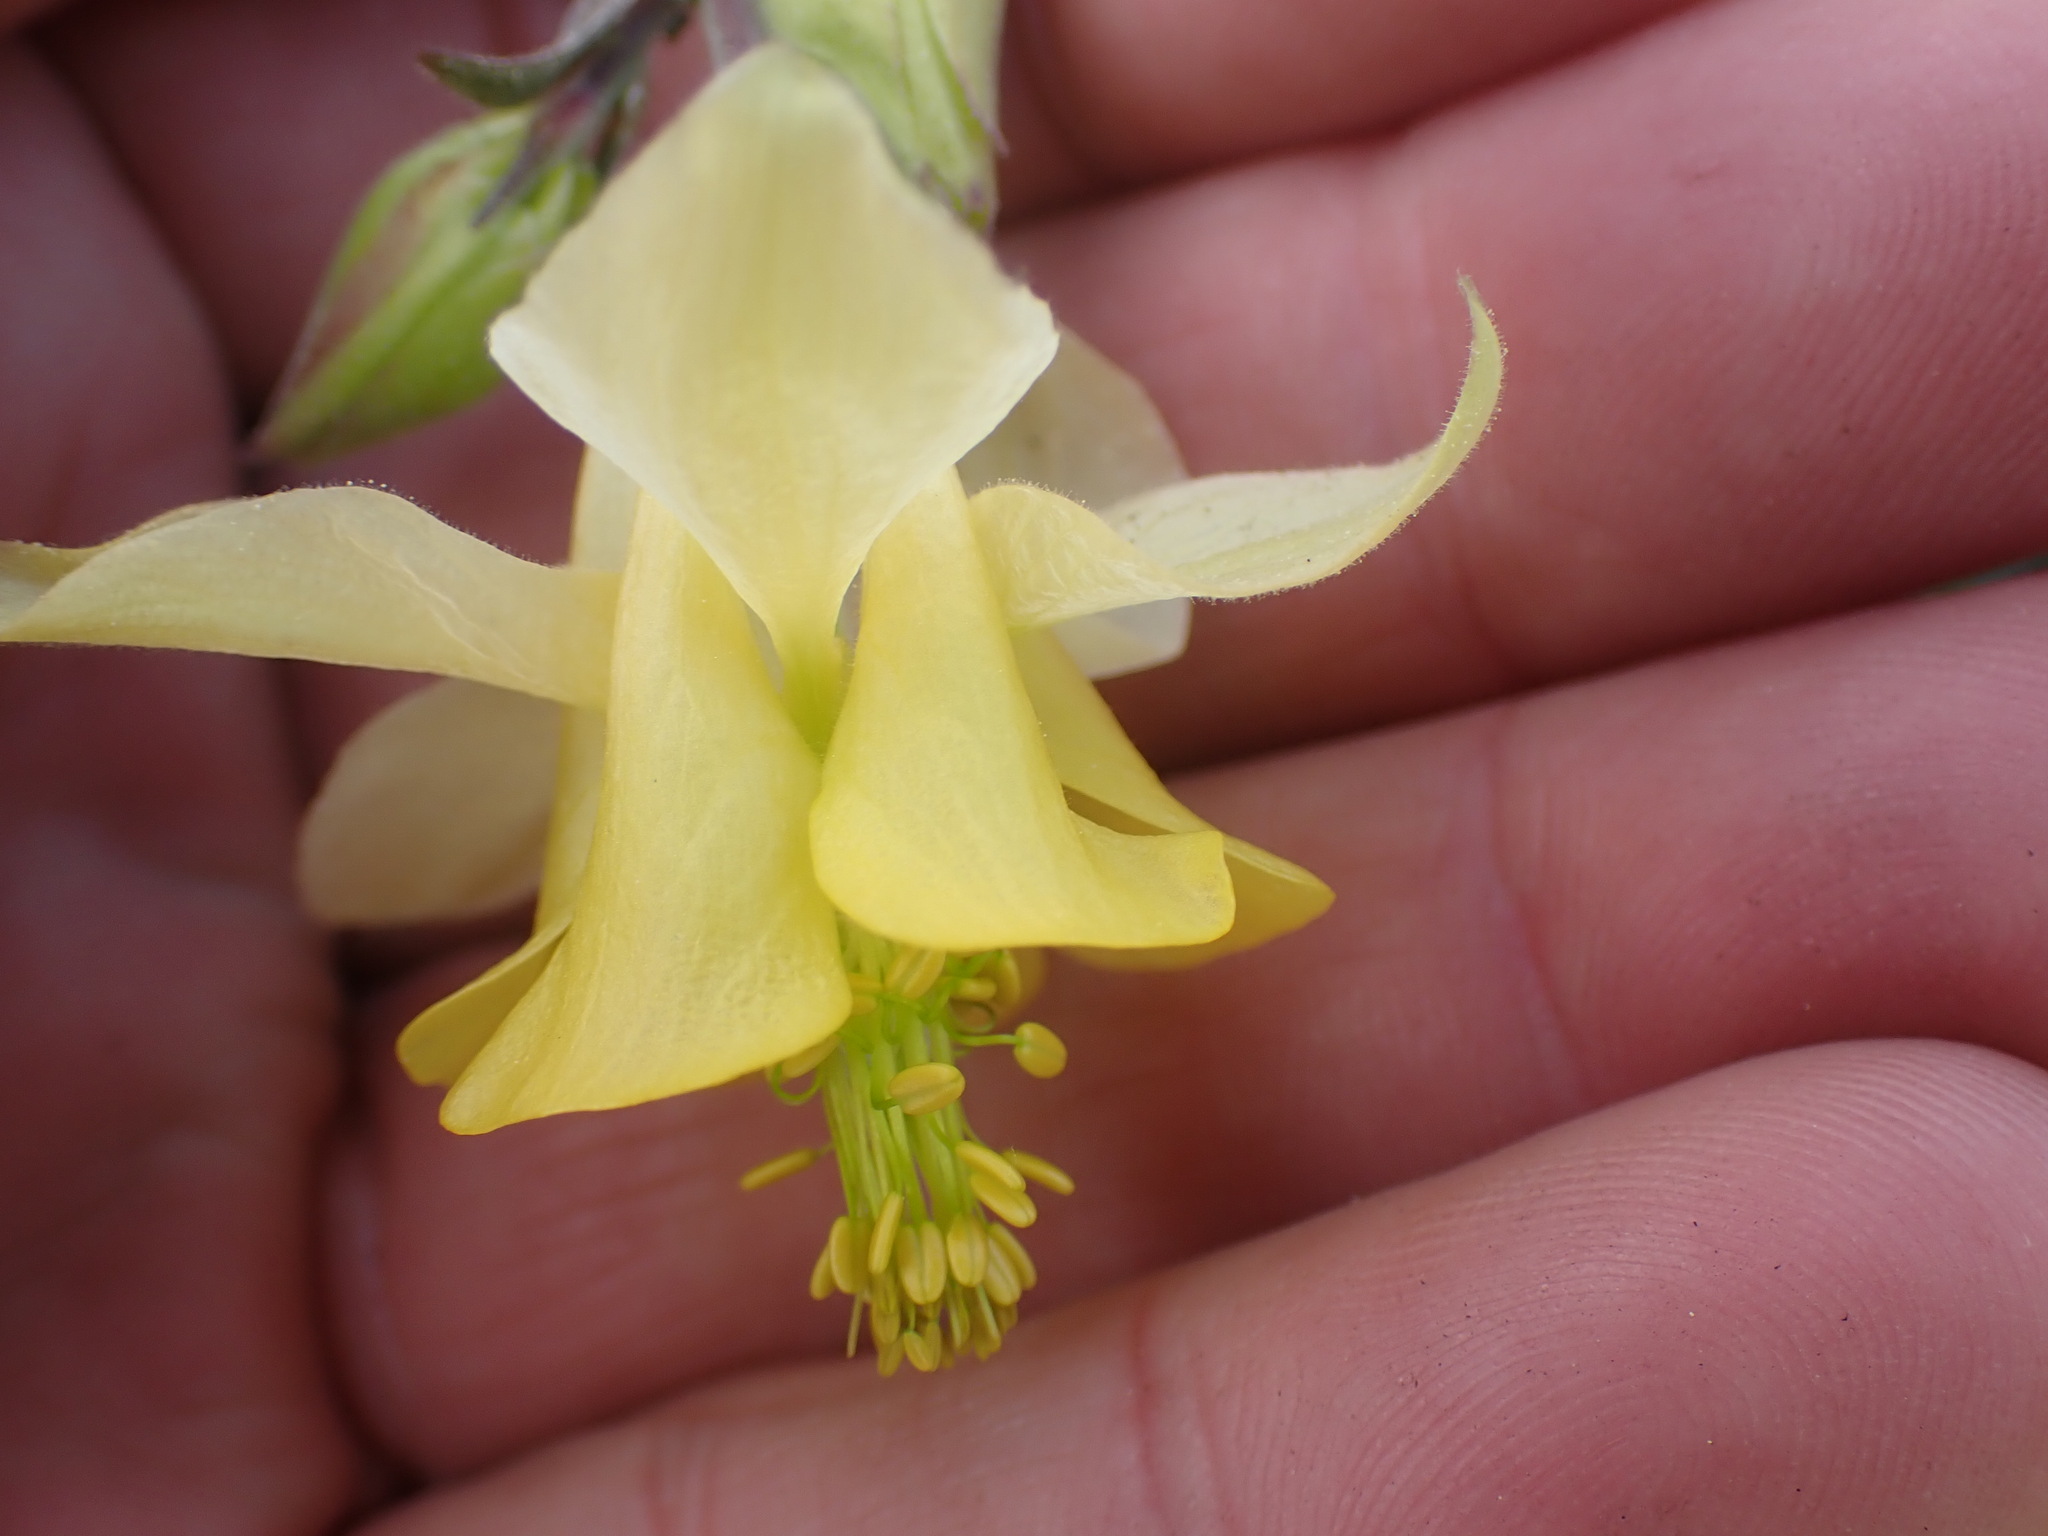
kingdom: Plantae
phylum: Tracheophyta
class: Magnoliopsida
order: Ranunculales
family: Ranunculaceae
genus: Aquilegia
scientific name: Aquilegia flavescens
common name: Yellow columbine
